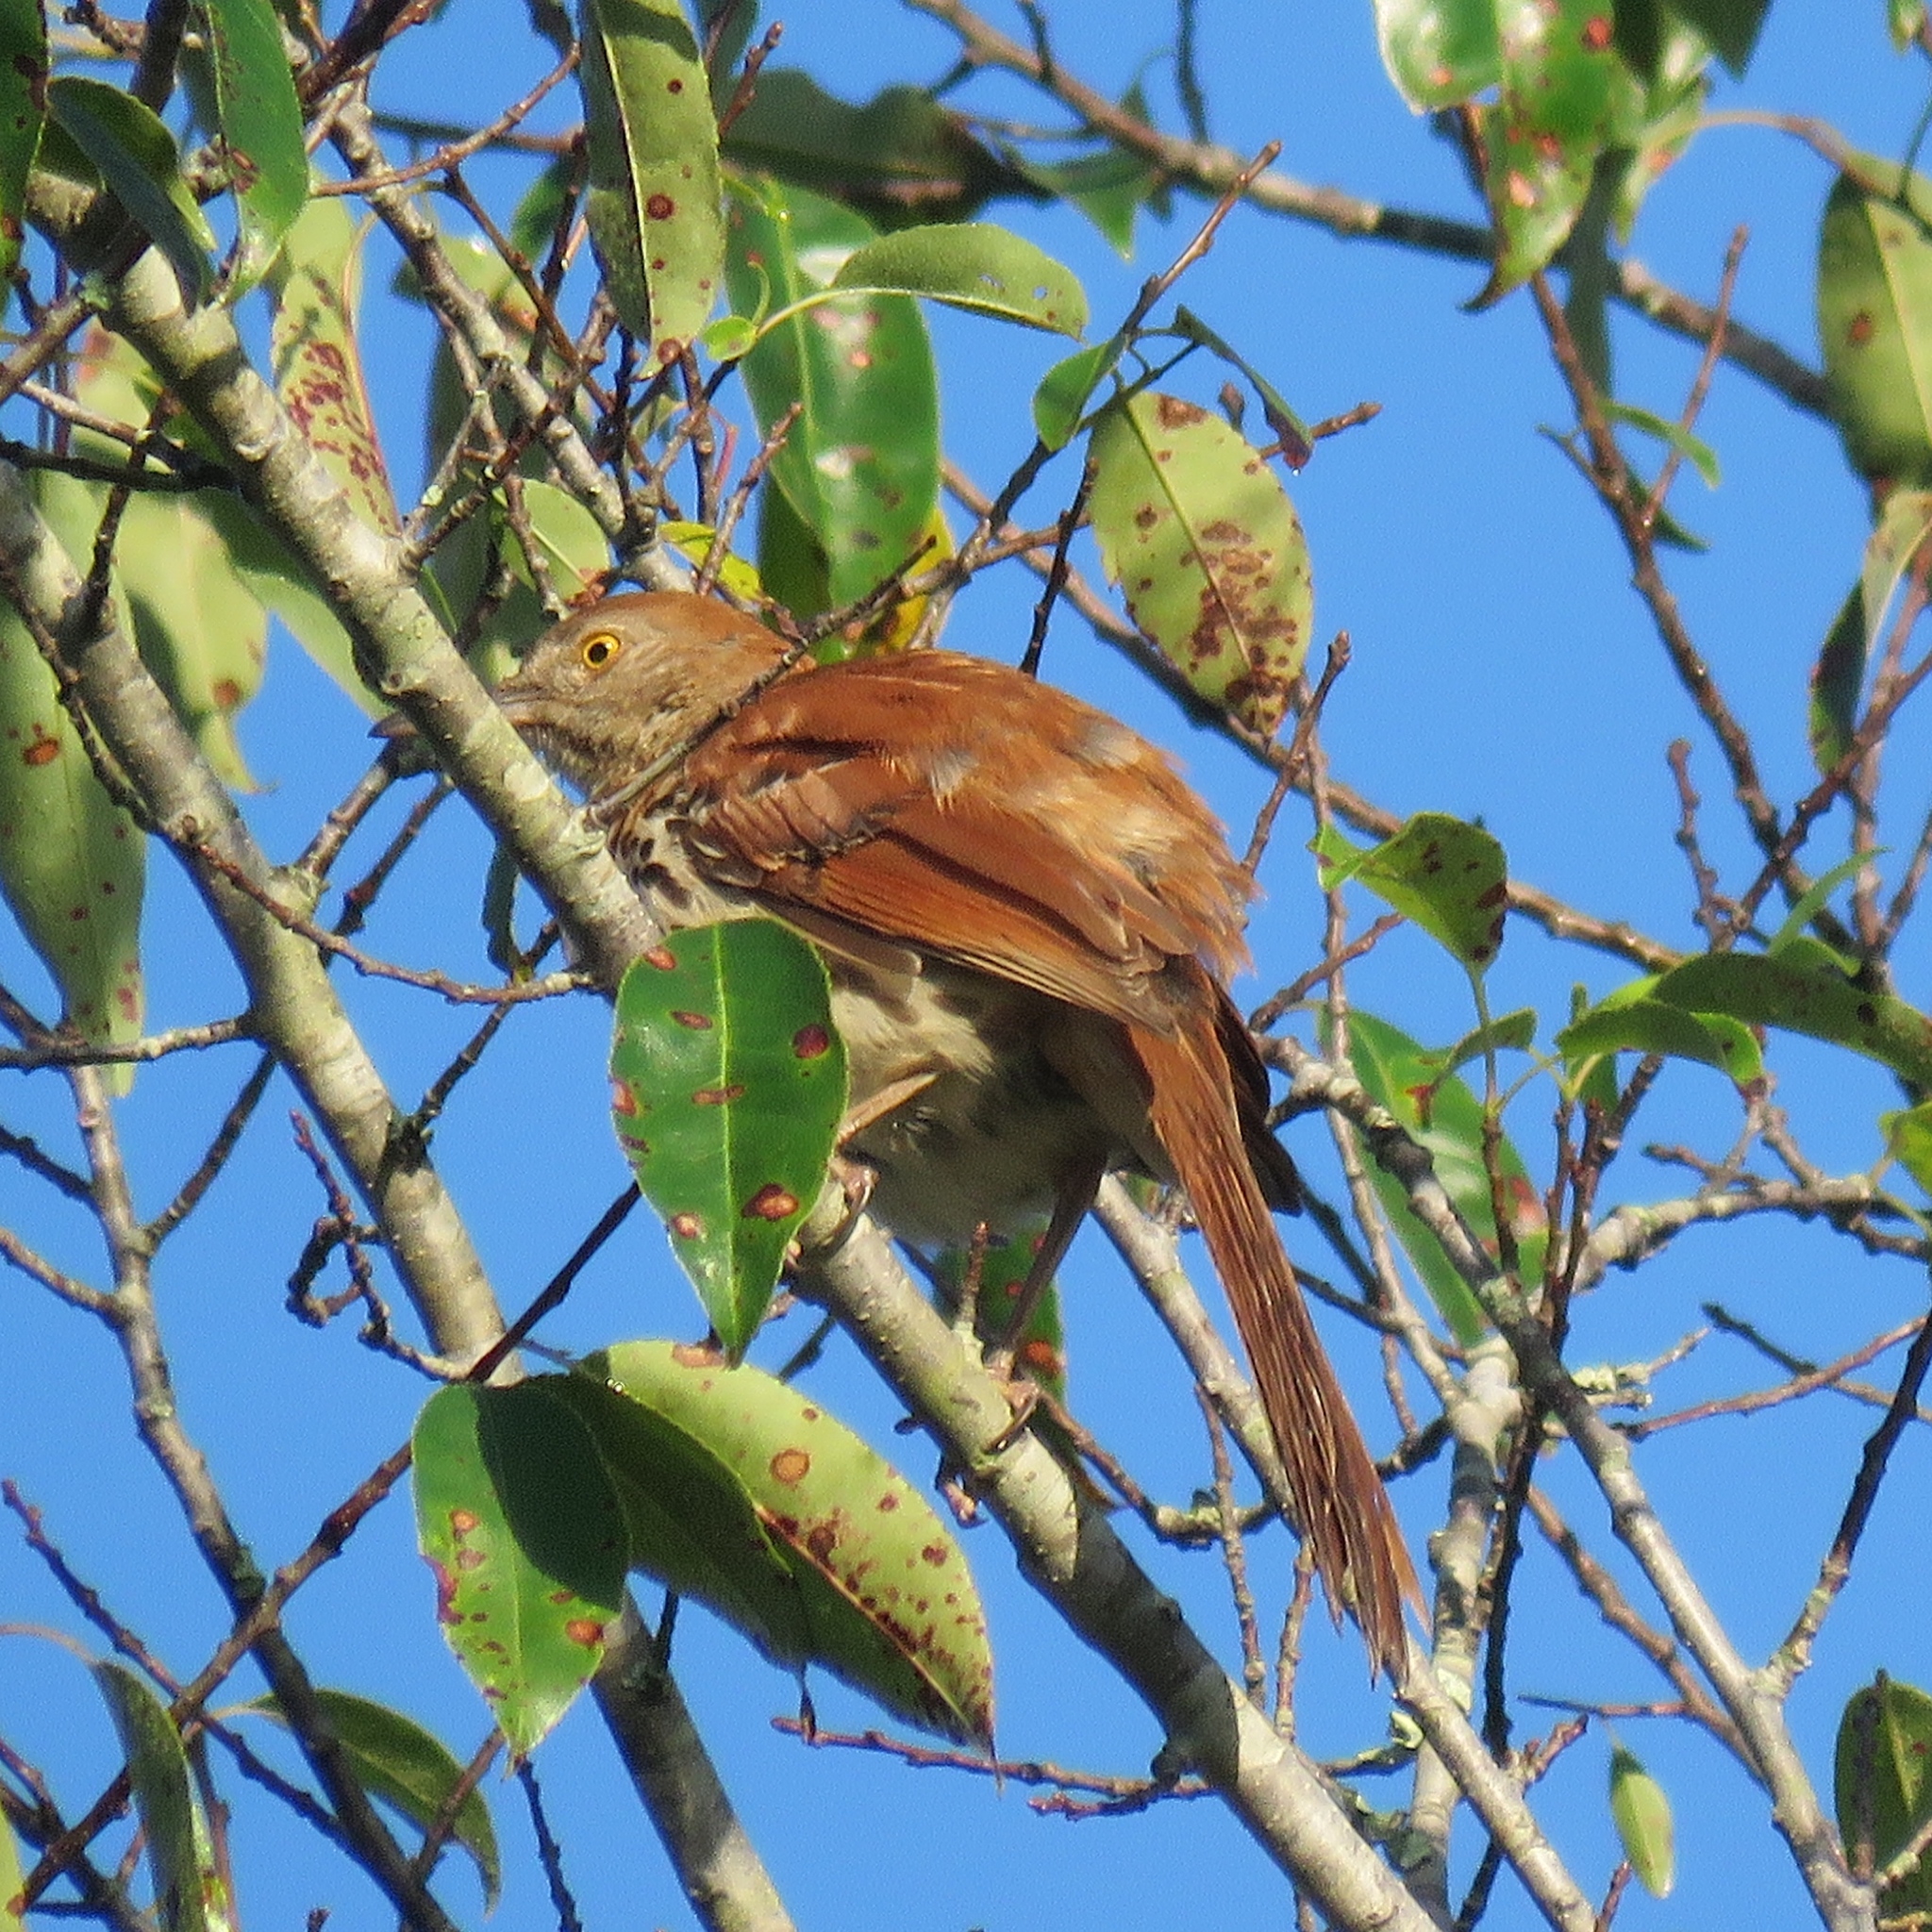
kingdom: Animalia
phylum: Chordata
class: Aves
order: Passeriformes
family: Mimidae
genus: Toxostoma
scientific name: Toxostoma rufum
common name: Brown thrasher
